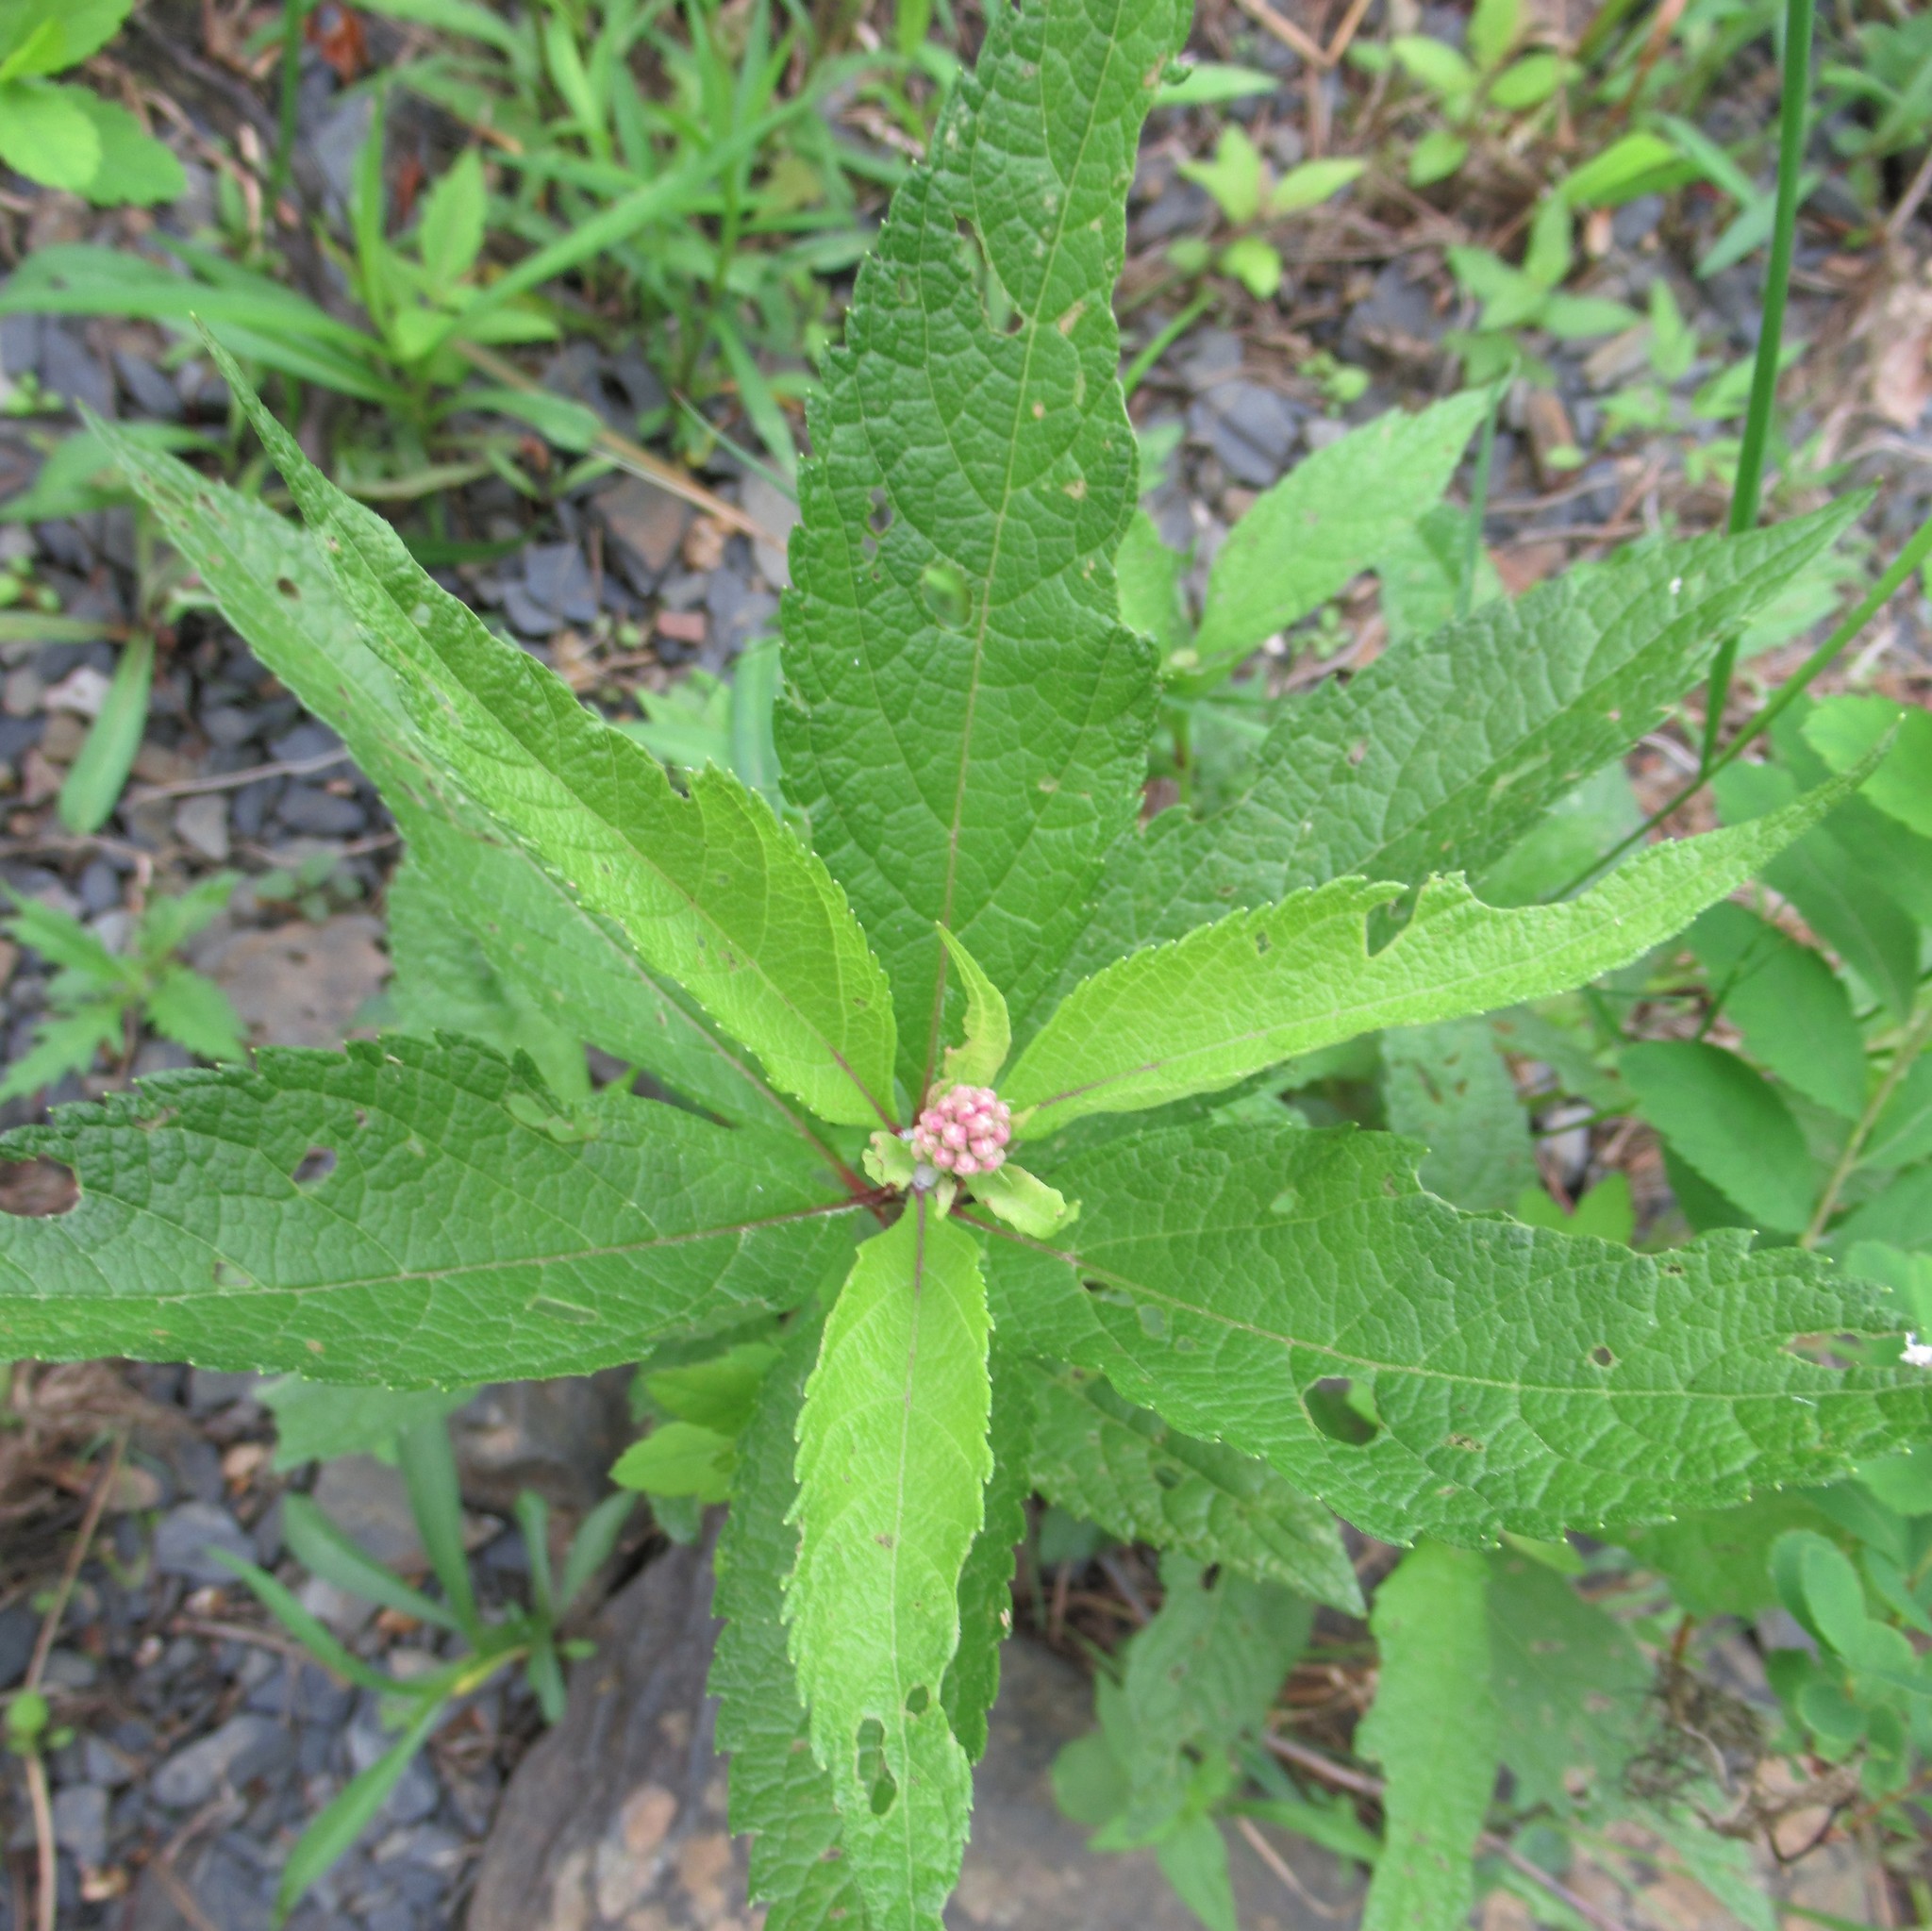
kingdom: Plantae
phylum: Tracheophyta
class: Magnoliopsida
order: Asterales
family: Asteraceae
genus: Eutrochium
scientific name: Eutrochium maculatum
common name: Spotted joe pye weed
